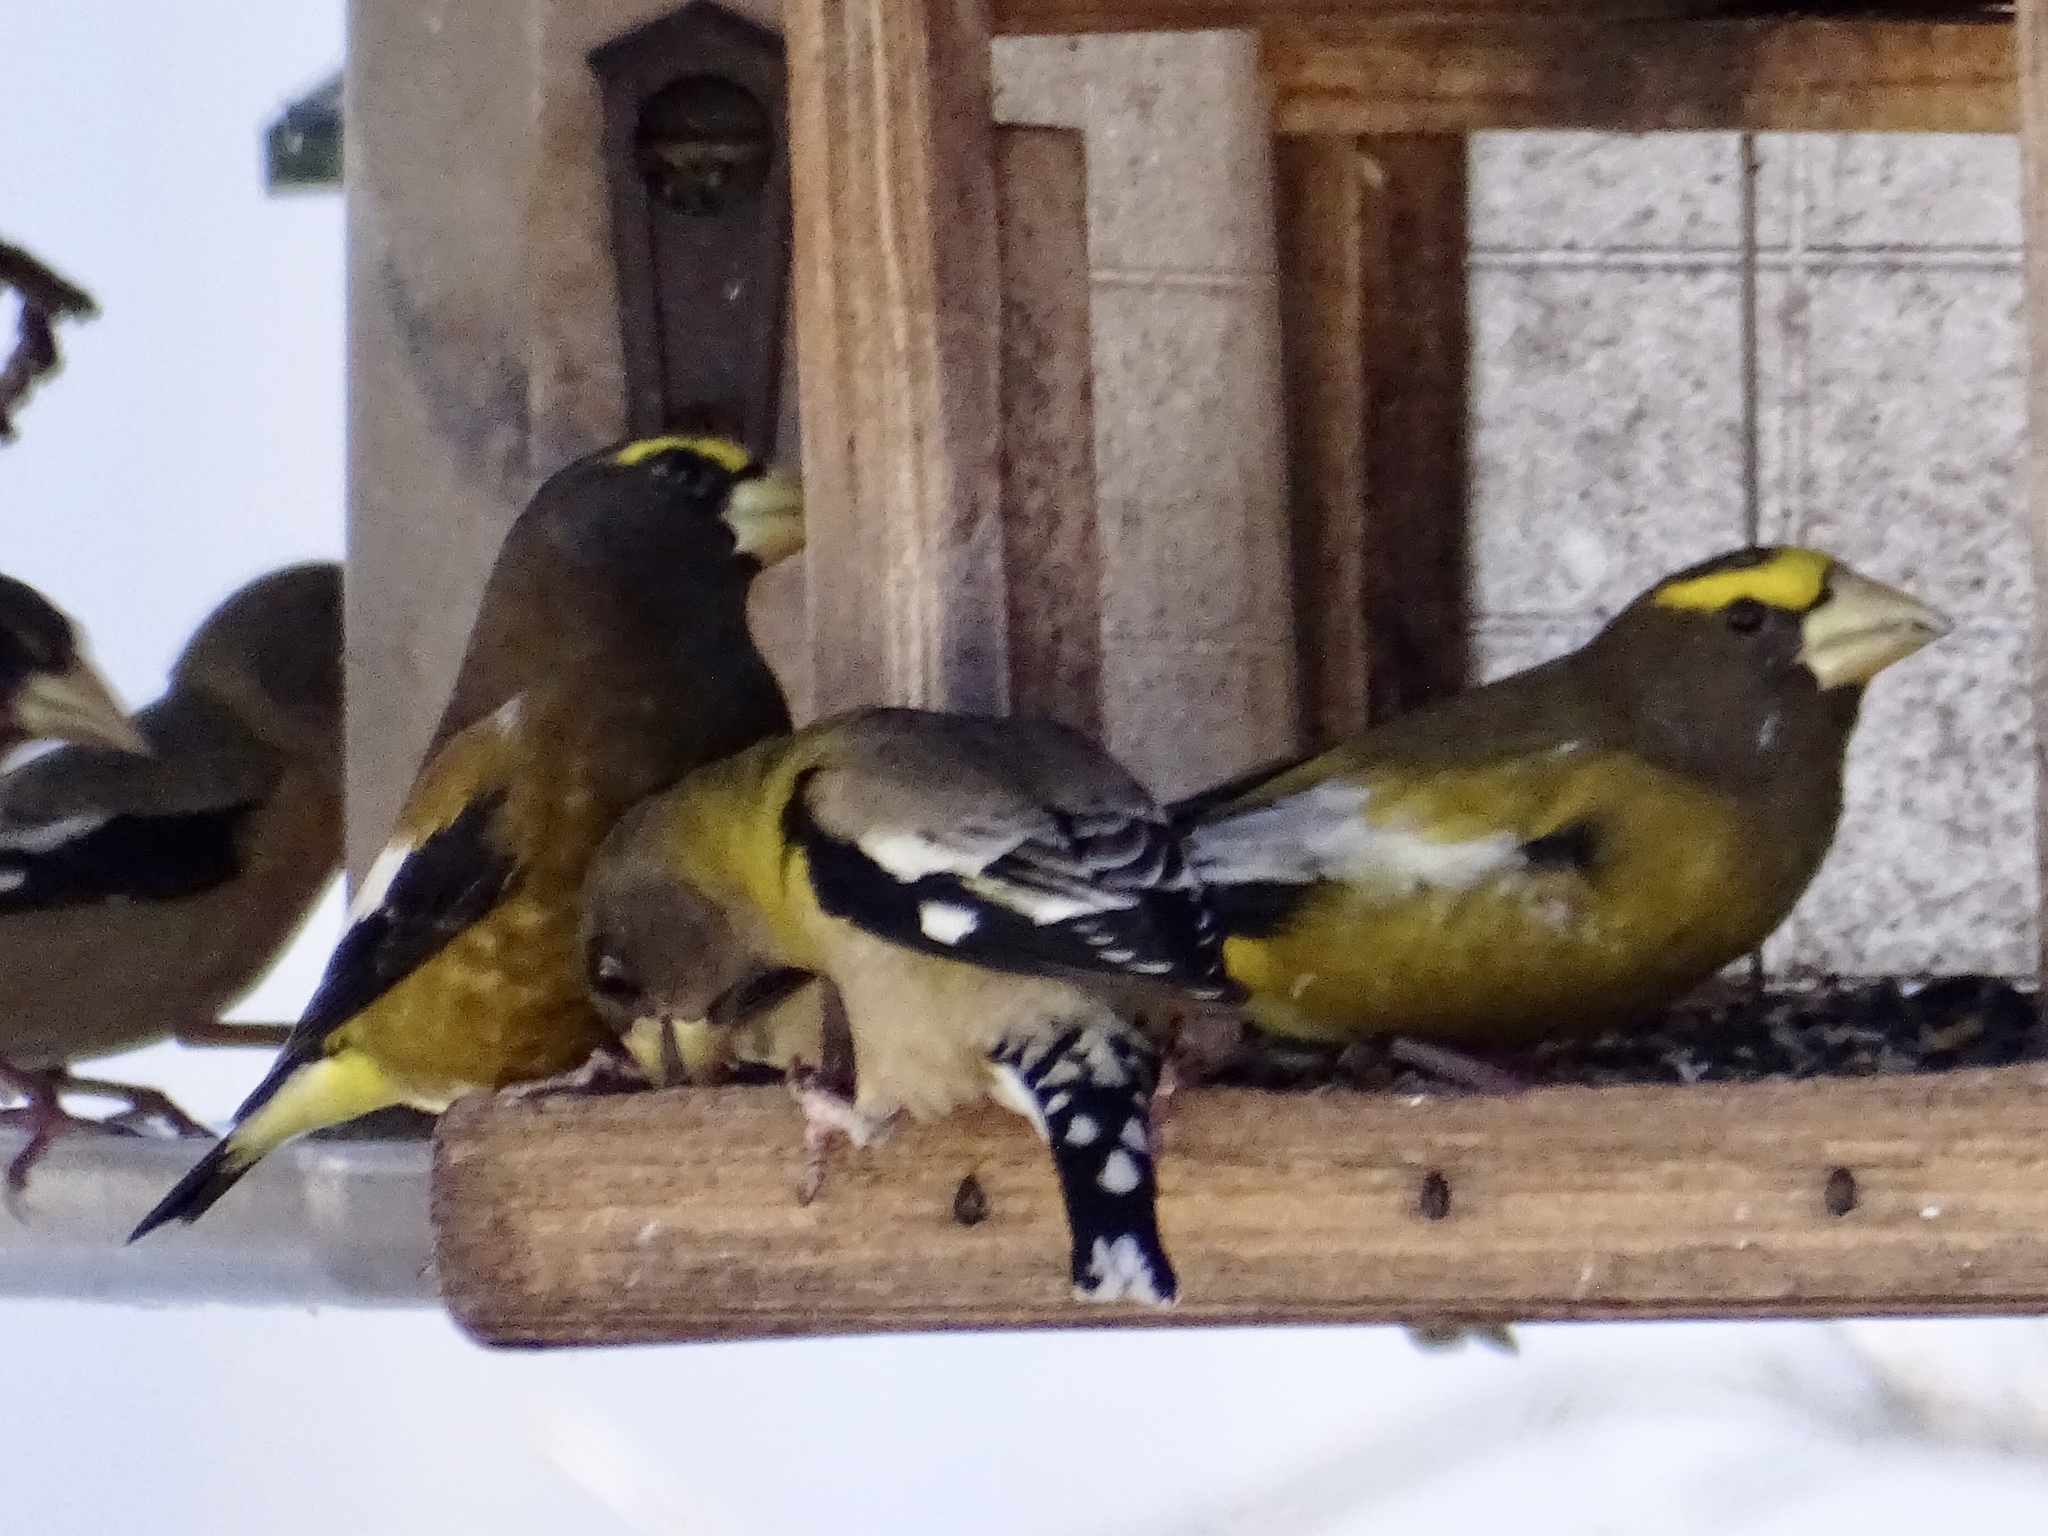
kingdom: Animalia
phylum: Chordata
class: Aves
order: Passeriformes
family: Fringillidae
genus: Hesperiphona
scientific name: Hesperiphona vespertina
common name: Evening grosbeak
